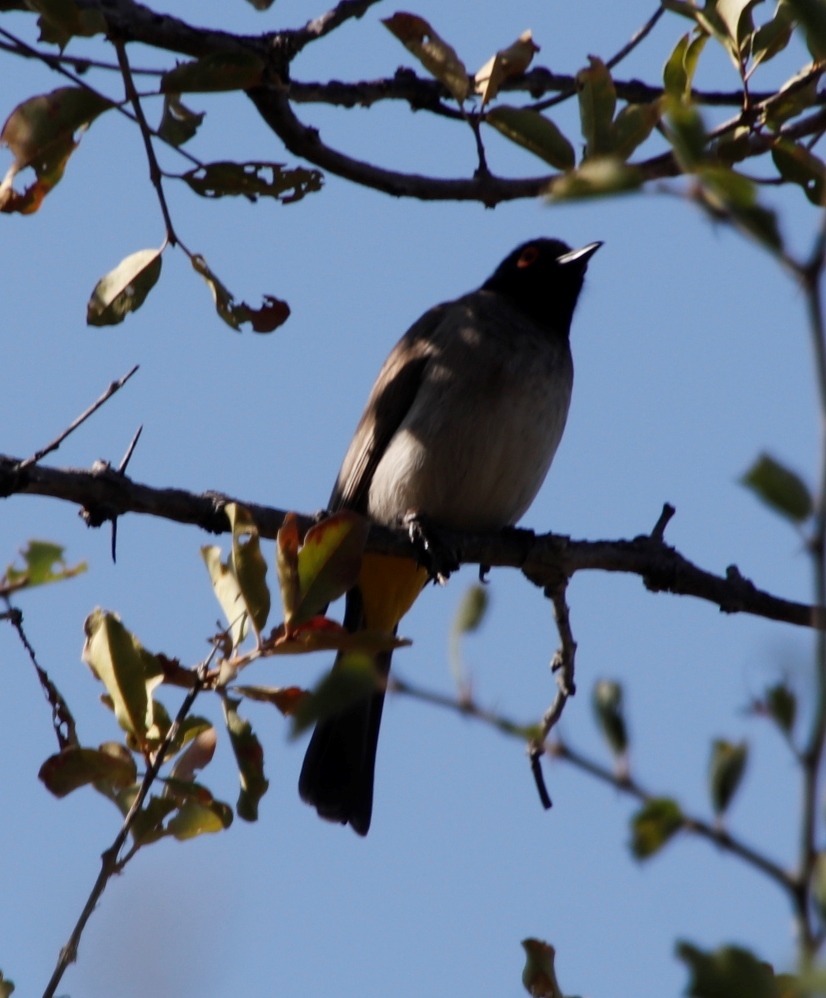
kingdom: Animalia
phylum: Chordata
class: Aves
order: Passeriformes
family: Pycnonotidae
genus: Pycnonotus
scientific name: Pycnonotus nigricans
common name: African red-eyed bulbul
